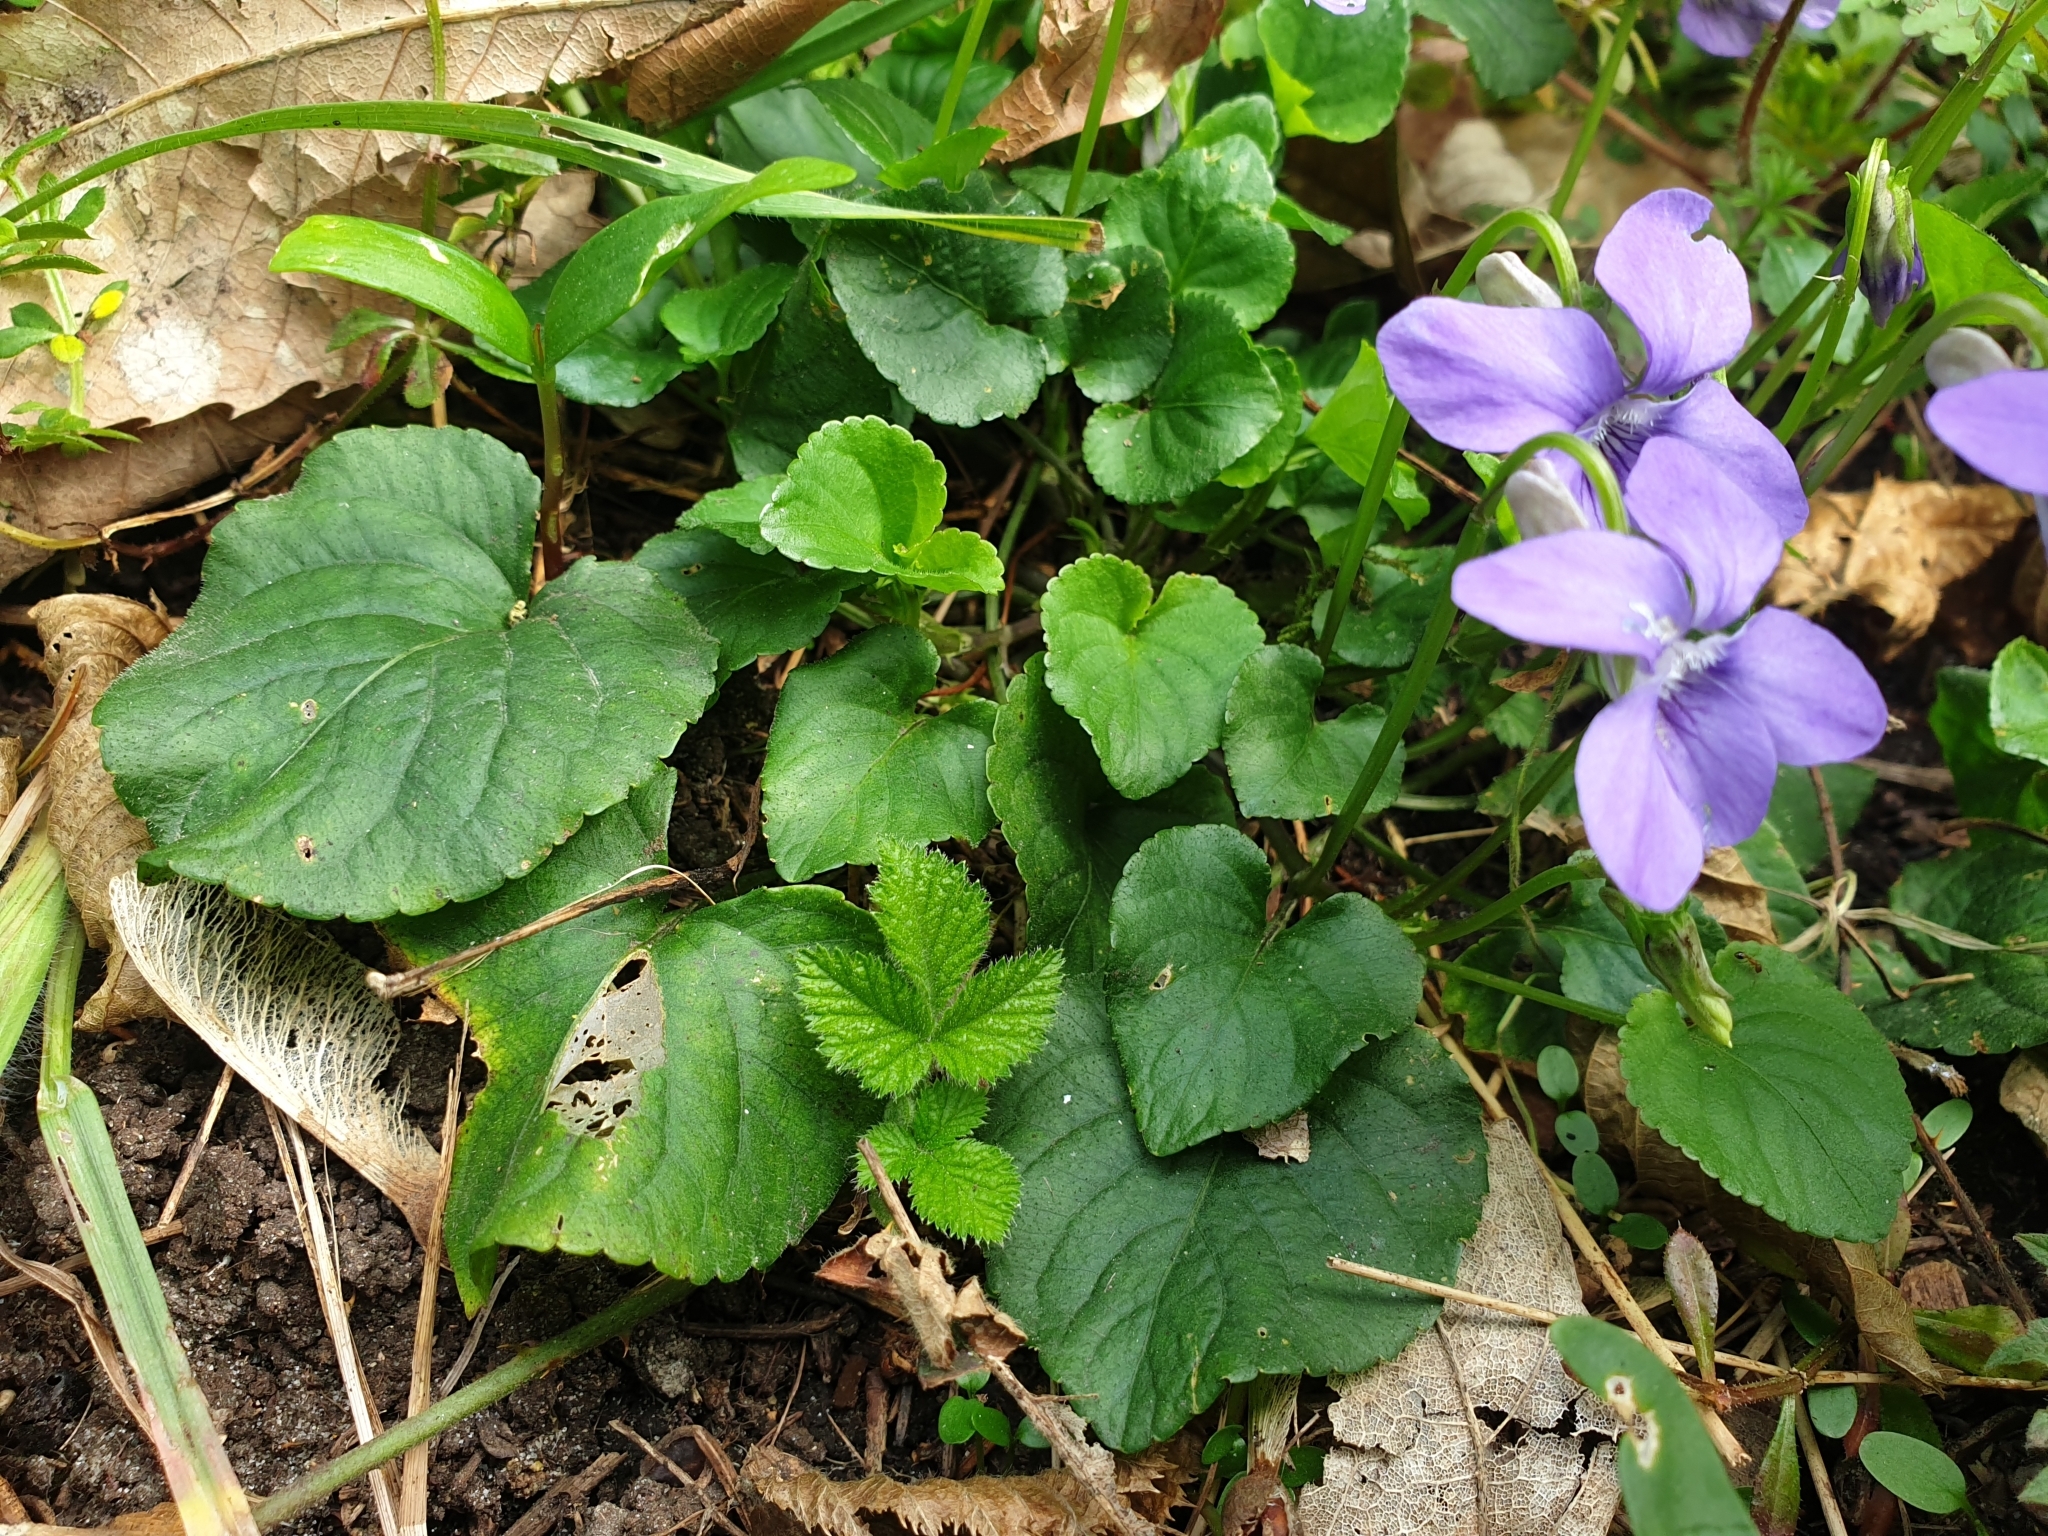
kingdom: Plantae
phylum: Tracheophyta
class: Magnoliopsida
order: Malpighiales
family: Violaceae
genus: Viola
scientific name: Viola riviniana
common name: Common dog-violet
